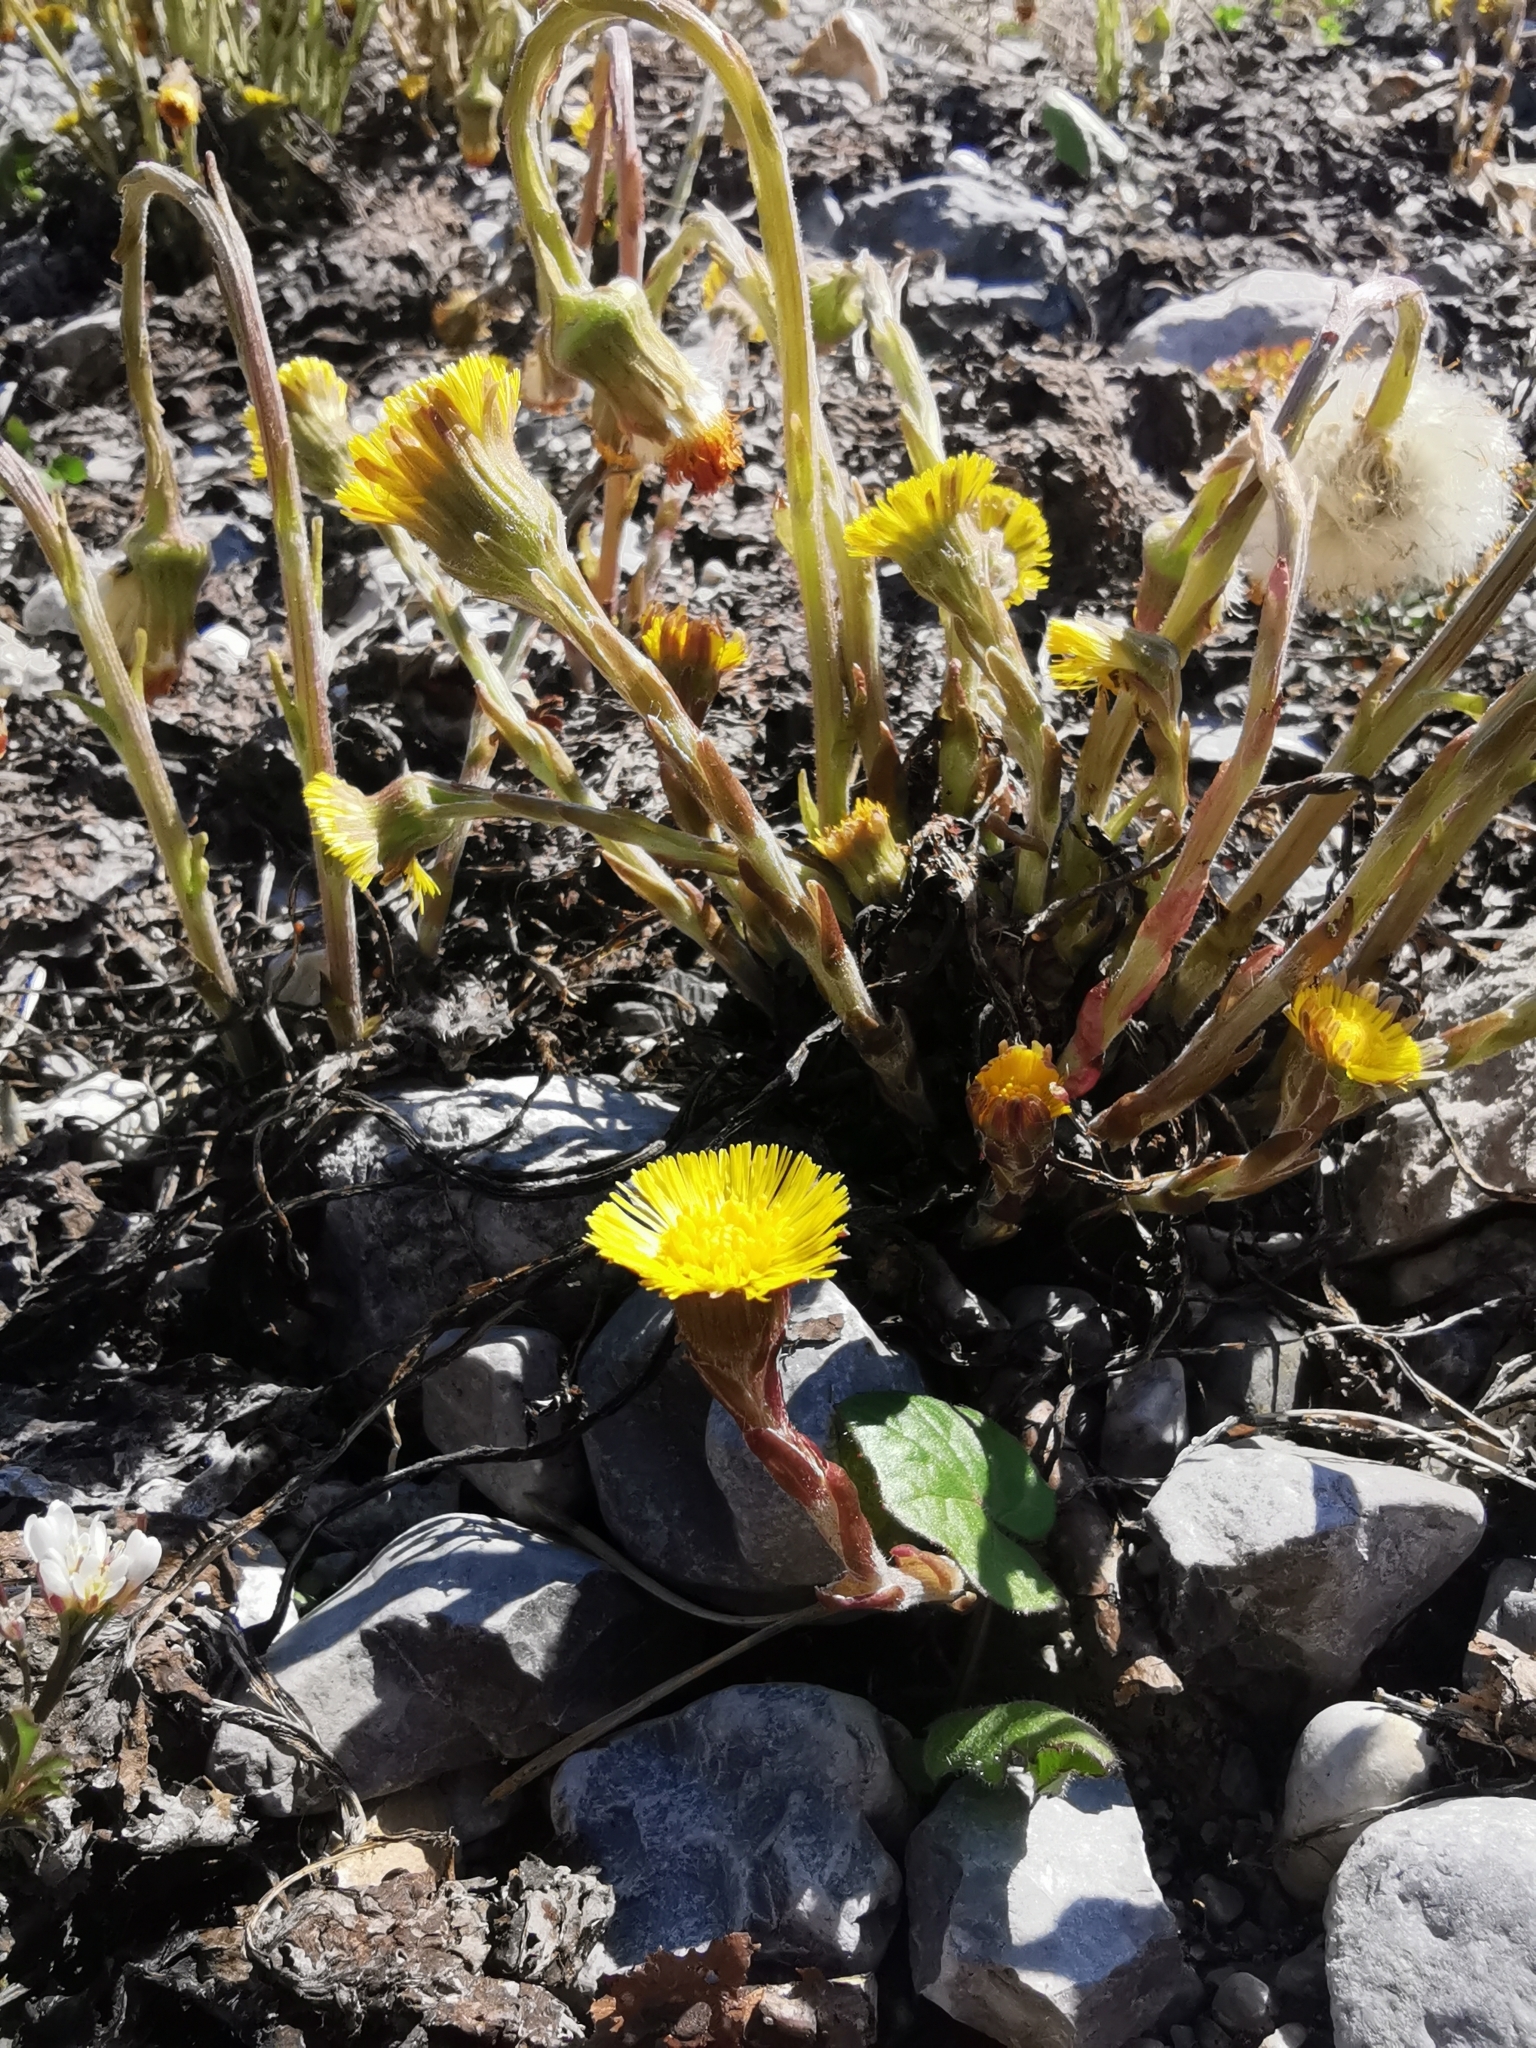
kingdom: Plantae
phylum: Tracheophyta
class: Magnoliopsida
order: Asterales
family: Asteraceae
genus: Tussilago
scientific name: Tussilago farfara
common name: Coltsfoot
